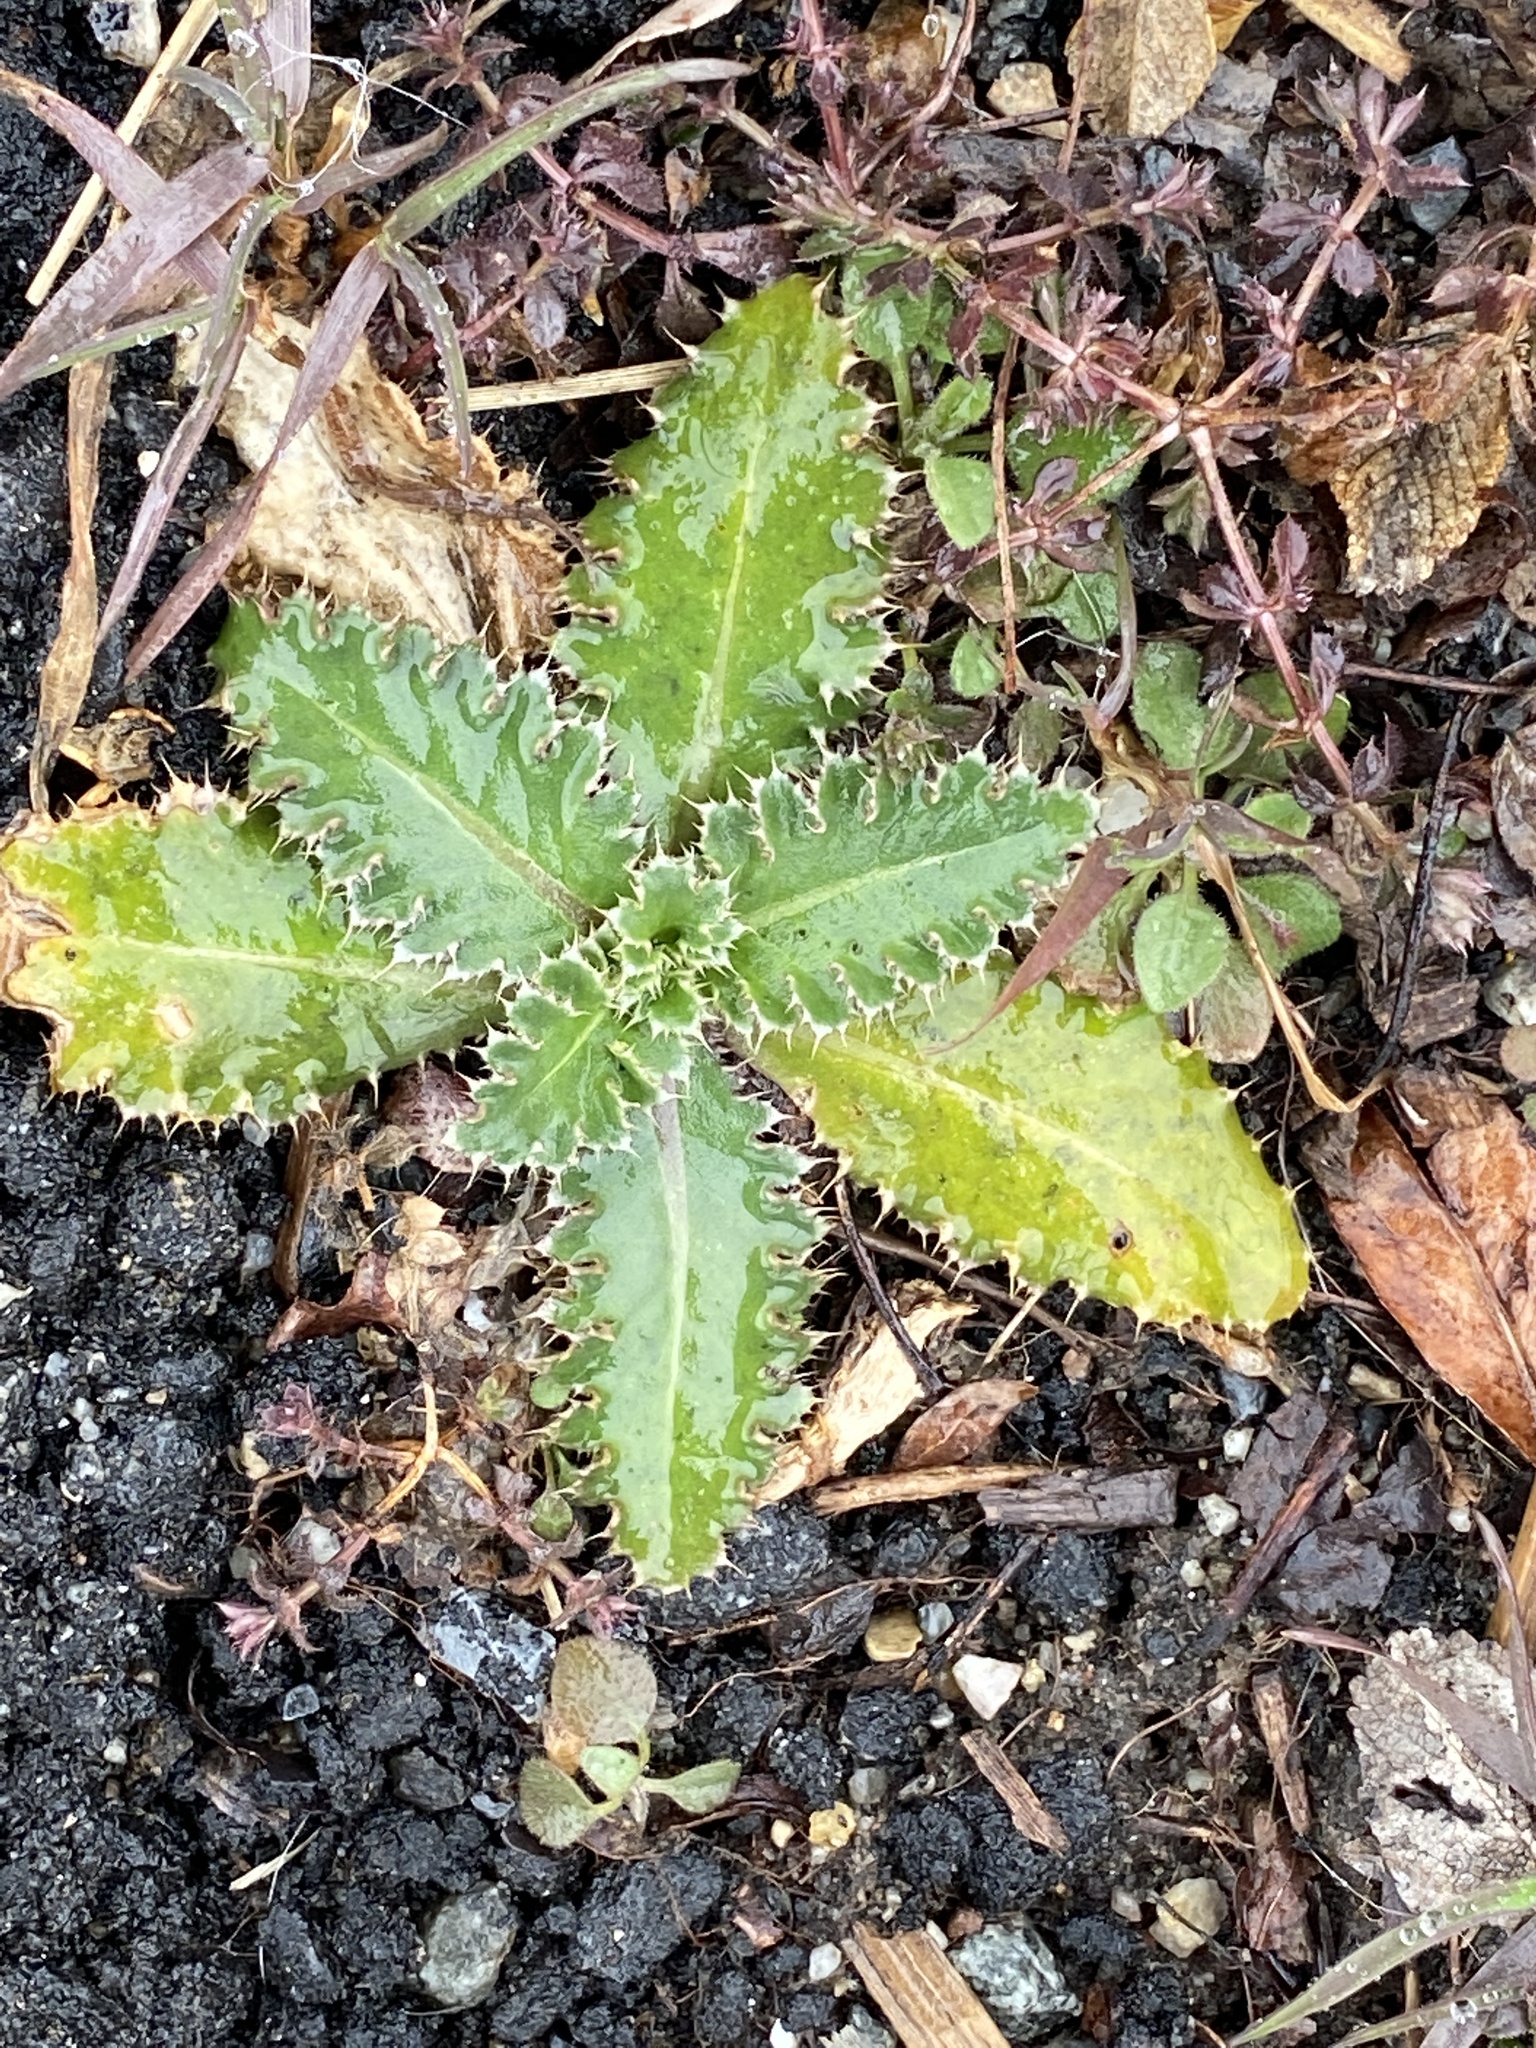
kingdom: Plantae
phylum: Tracheophyta
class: Magnoliopsida
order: Asterales
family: Asteraceae
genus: Carduus
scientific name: Carduus nutans
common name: Musk thistle
